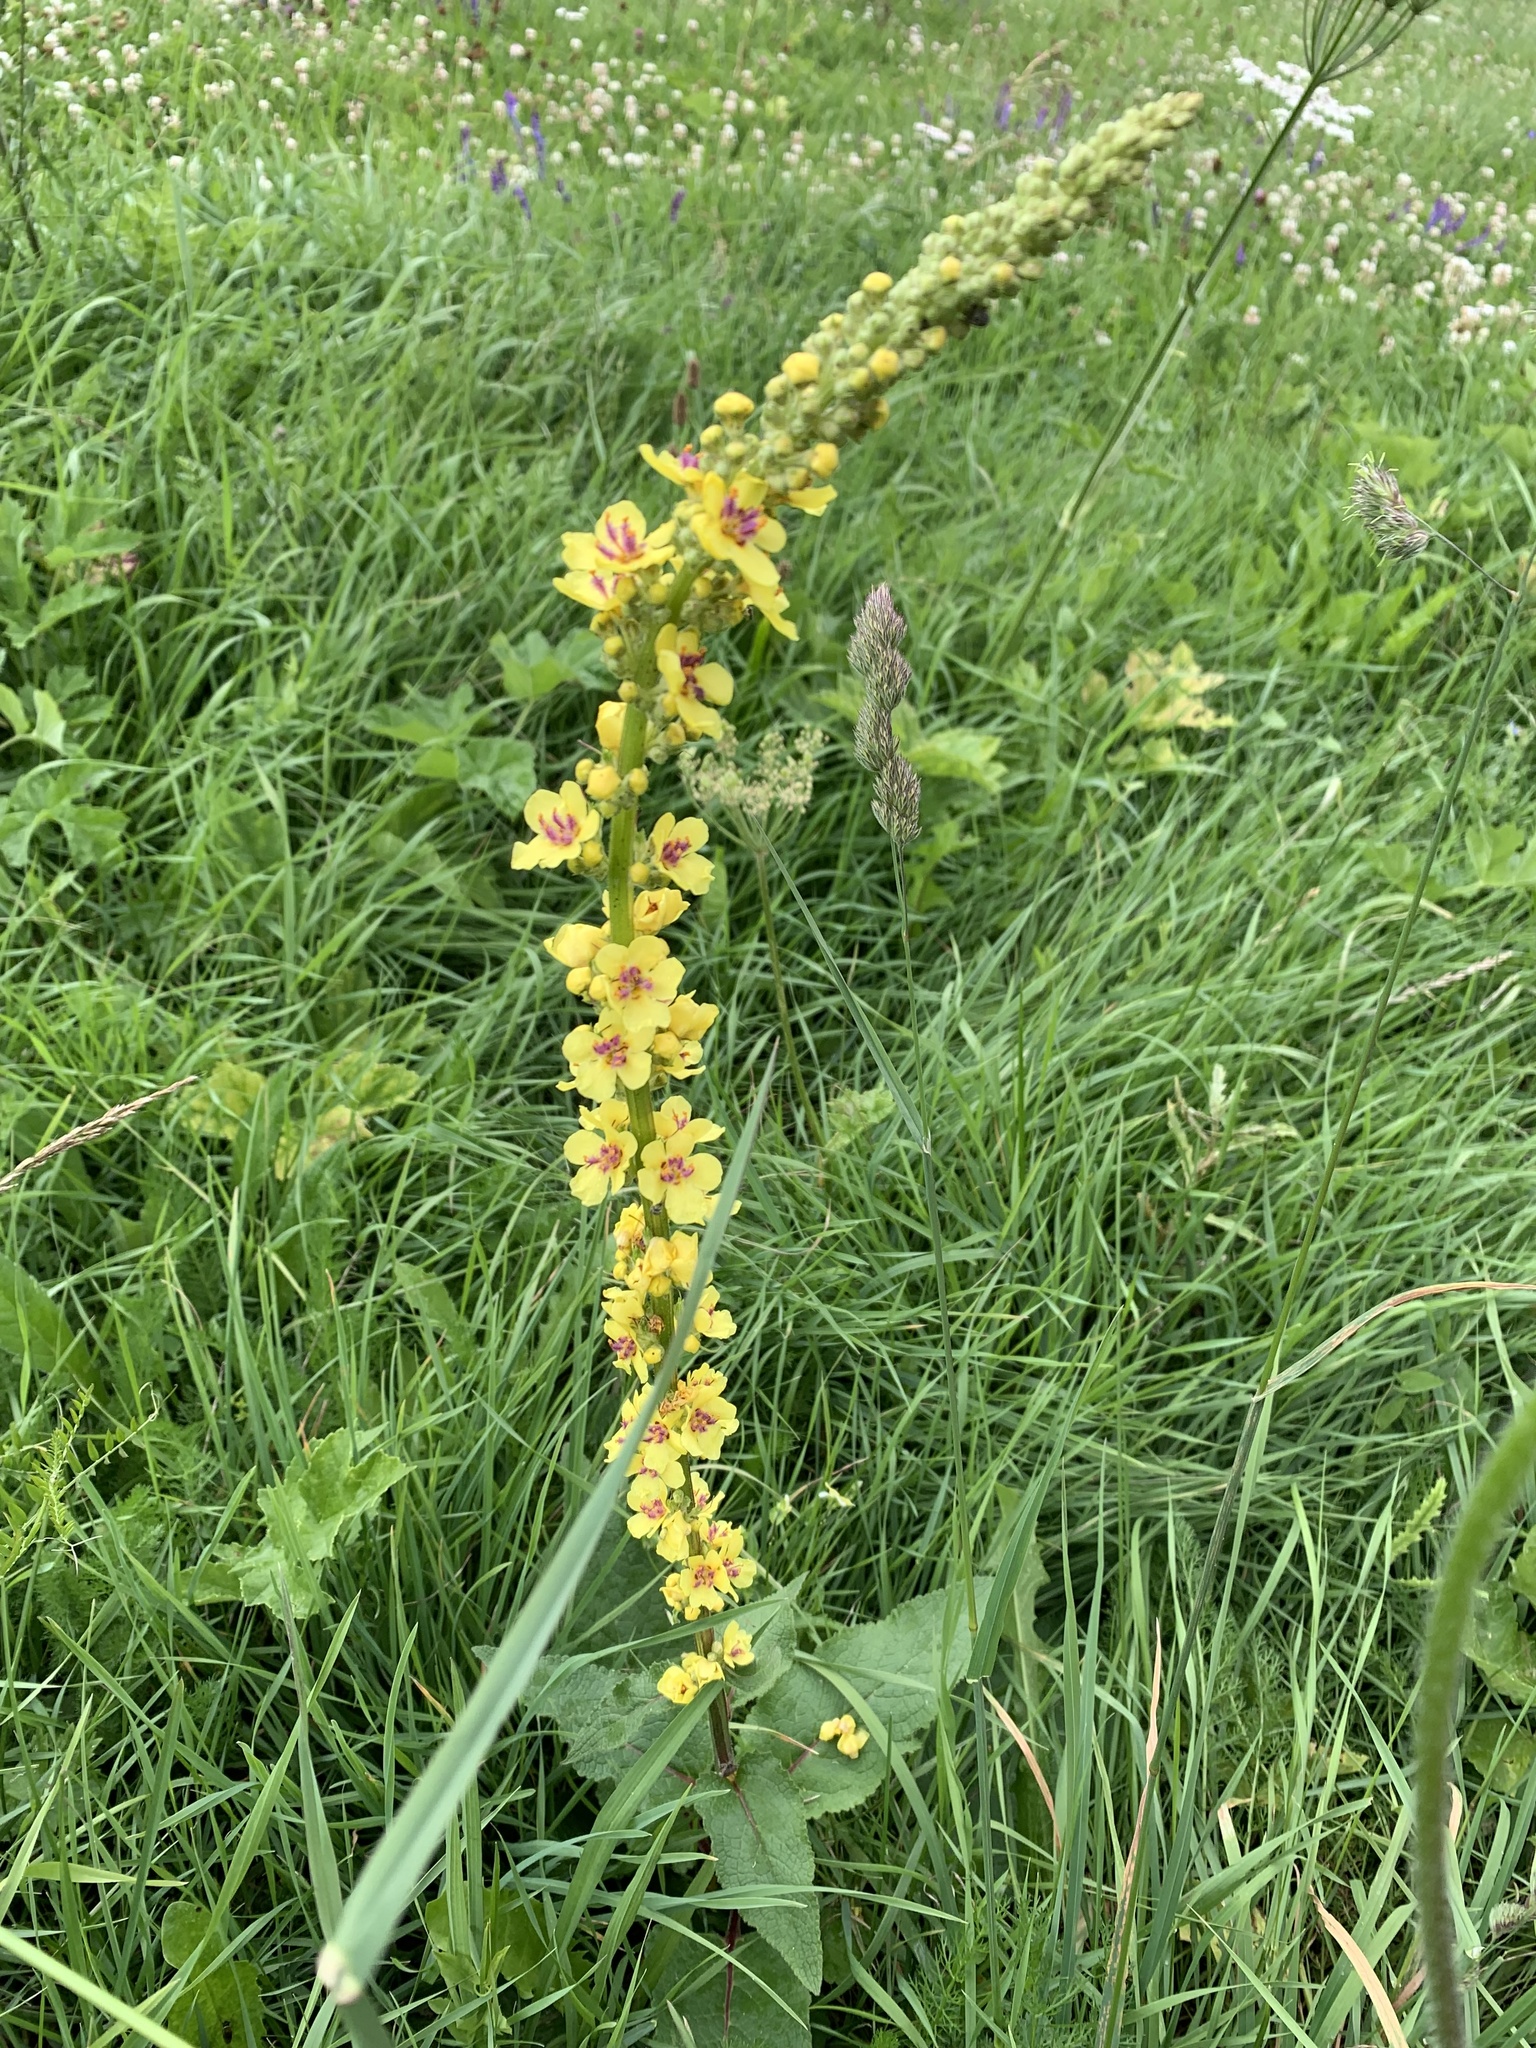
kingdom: Plantae
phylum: Tracheophyta
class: Magnoliopsida
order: Lamiales
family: Scrophulariaceae
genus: Verbascum
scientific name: Verbascum nigrum
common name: Dark mullein
